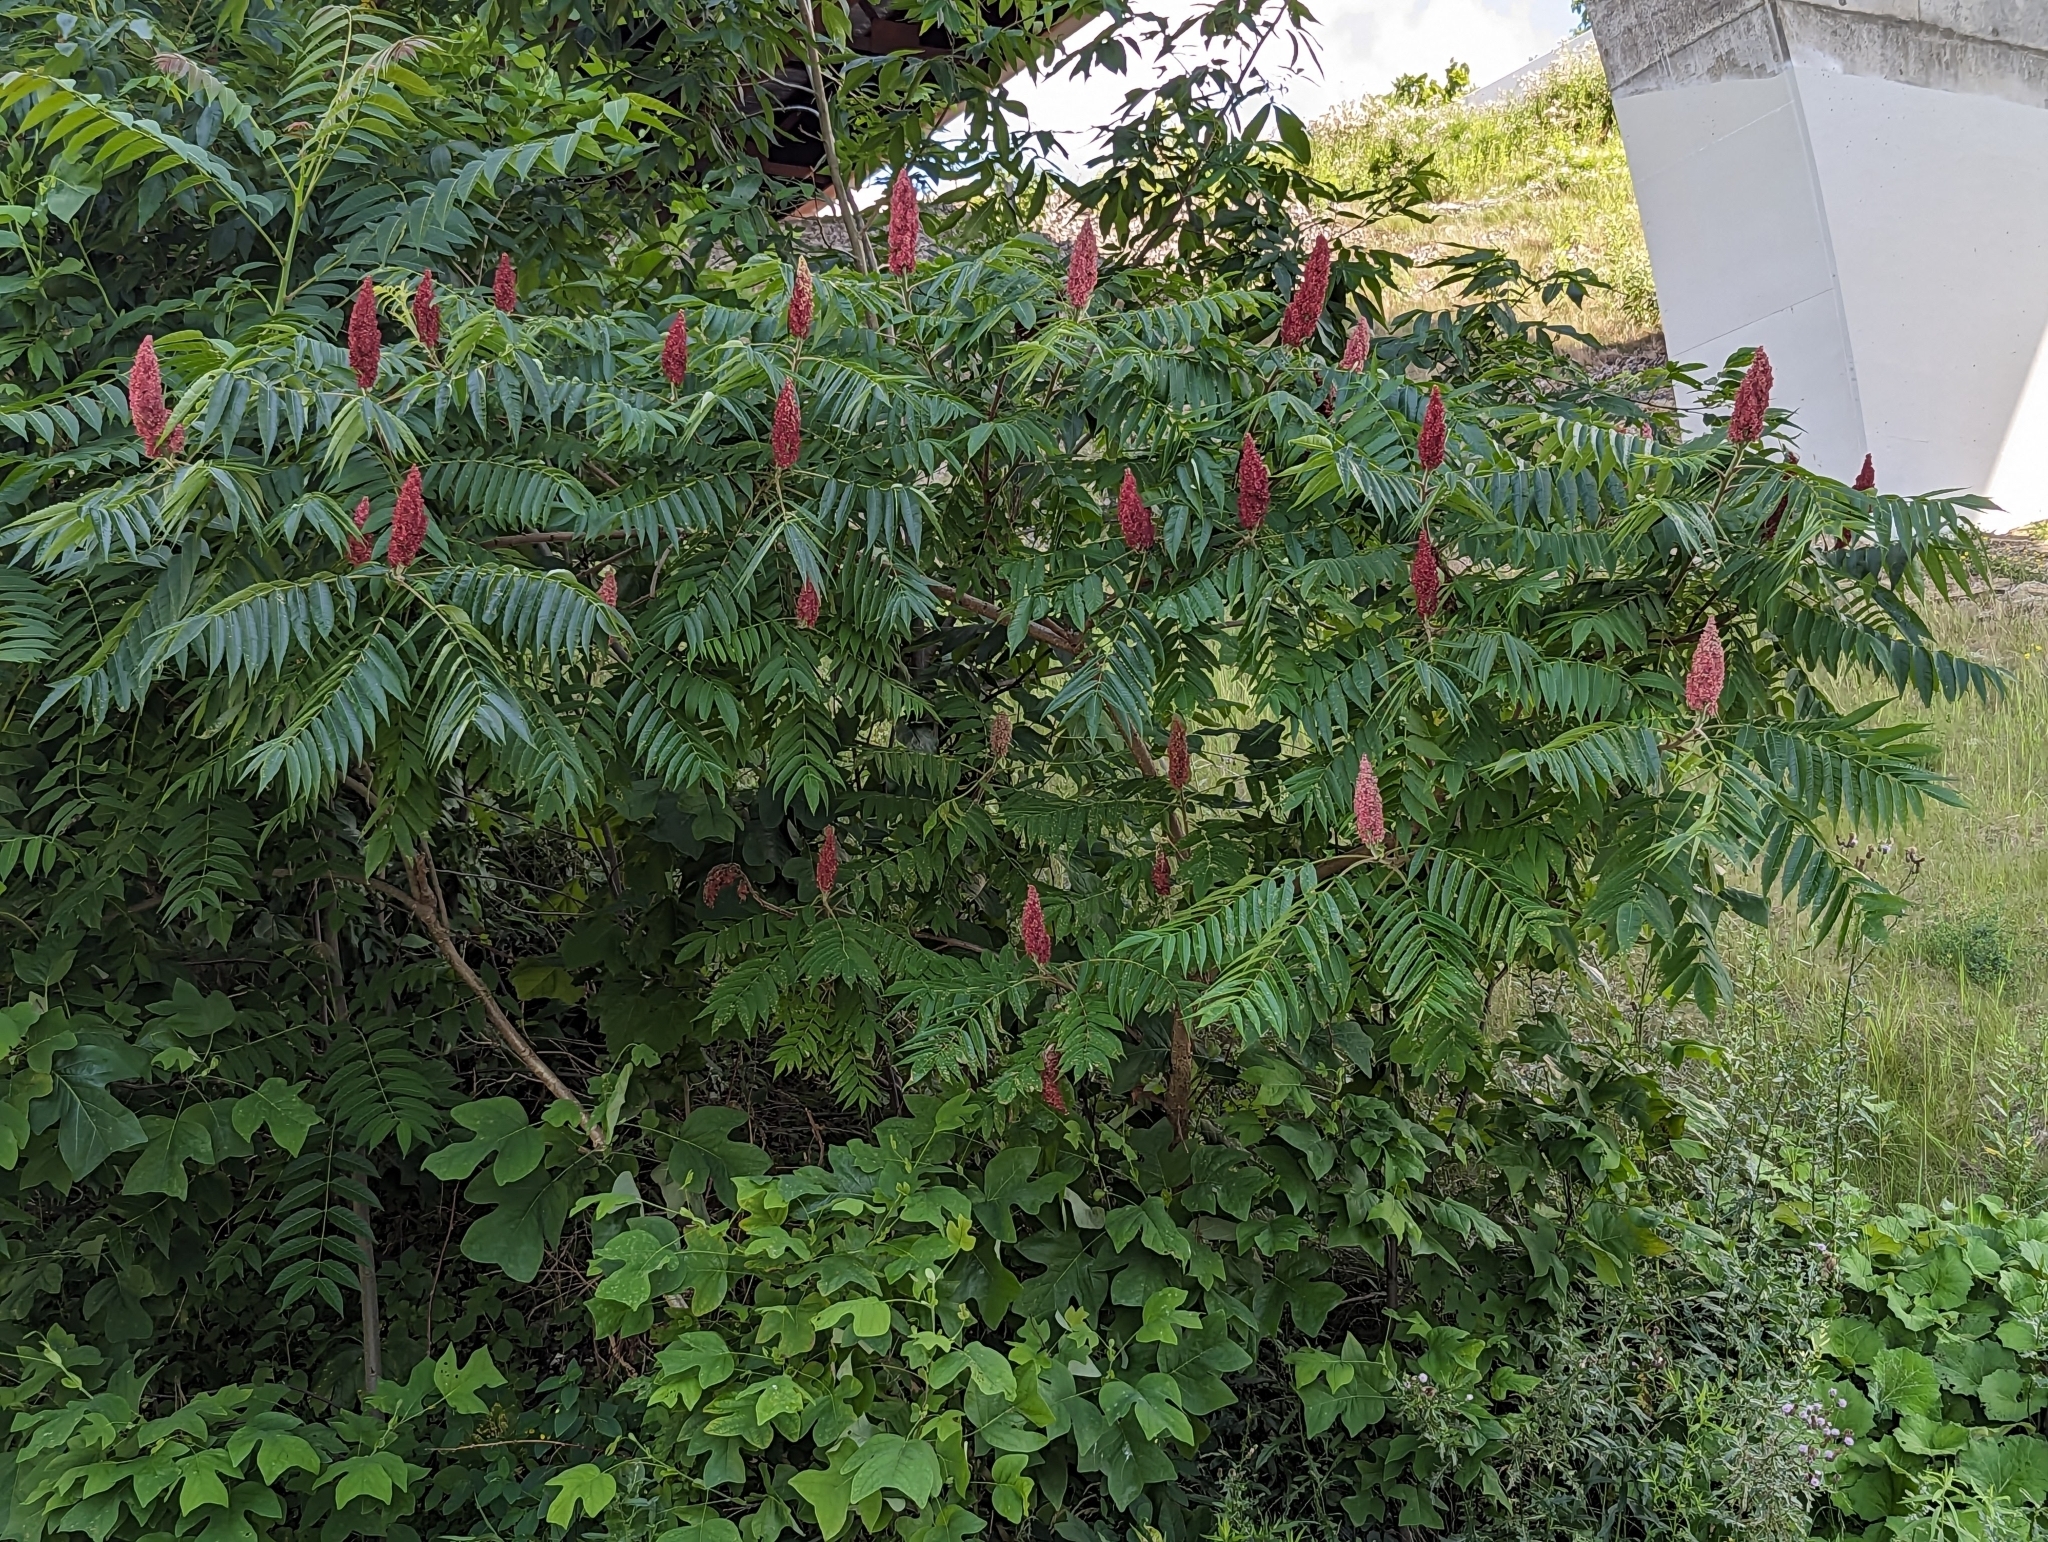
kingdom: Plantae
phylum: Tracheophyta
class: Magnoliopsida
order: Sapindales
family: Anacardiaceae
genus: Rhus
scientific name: Rhus typhina
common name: Staghorn sumac
